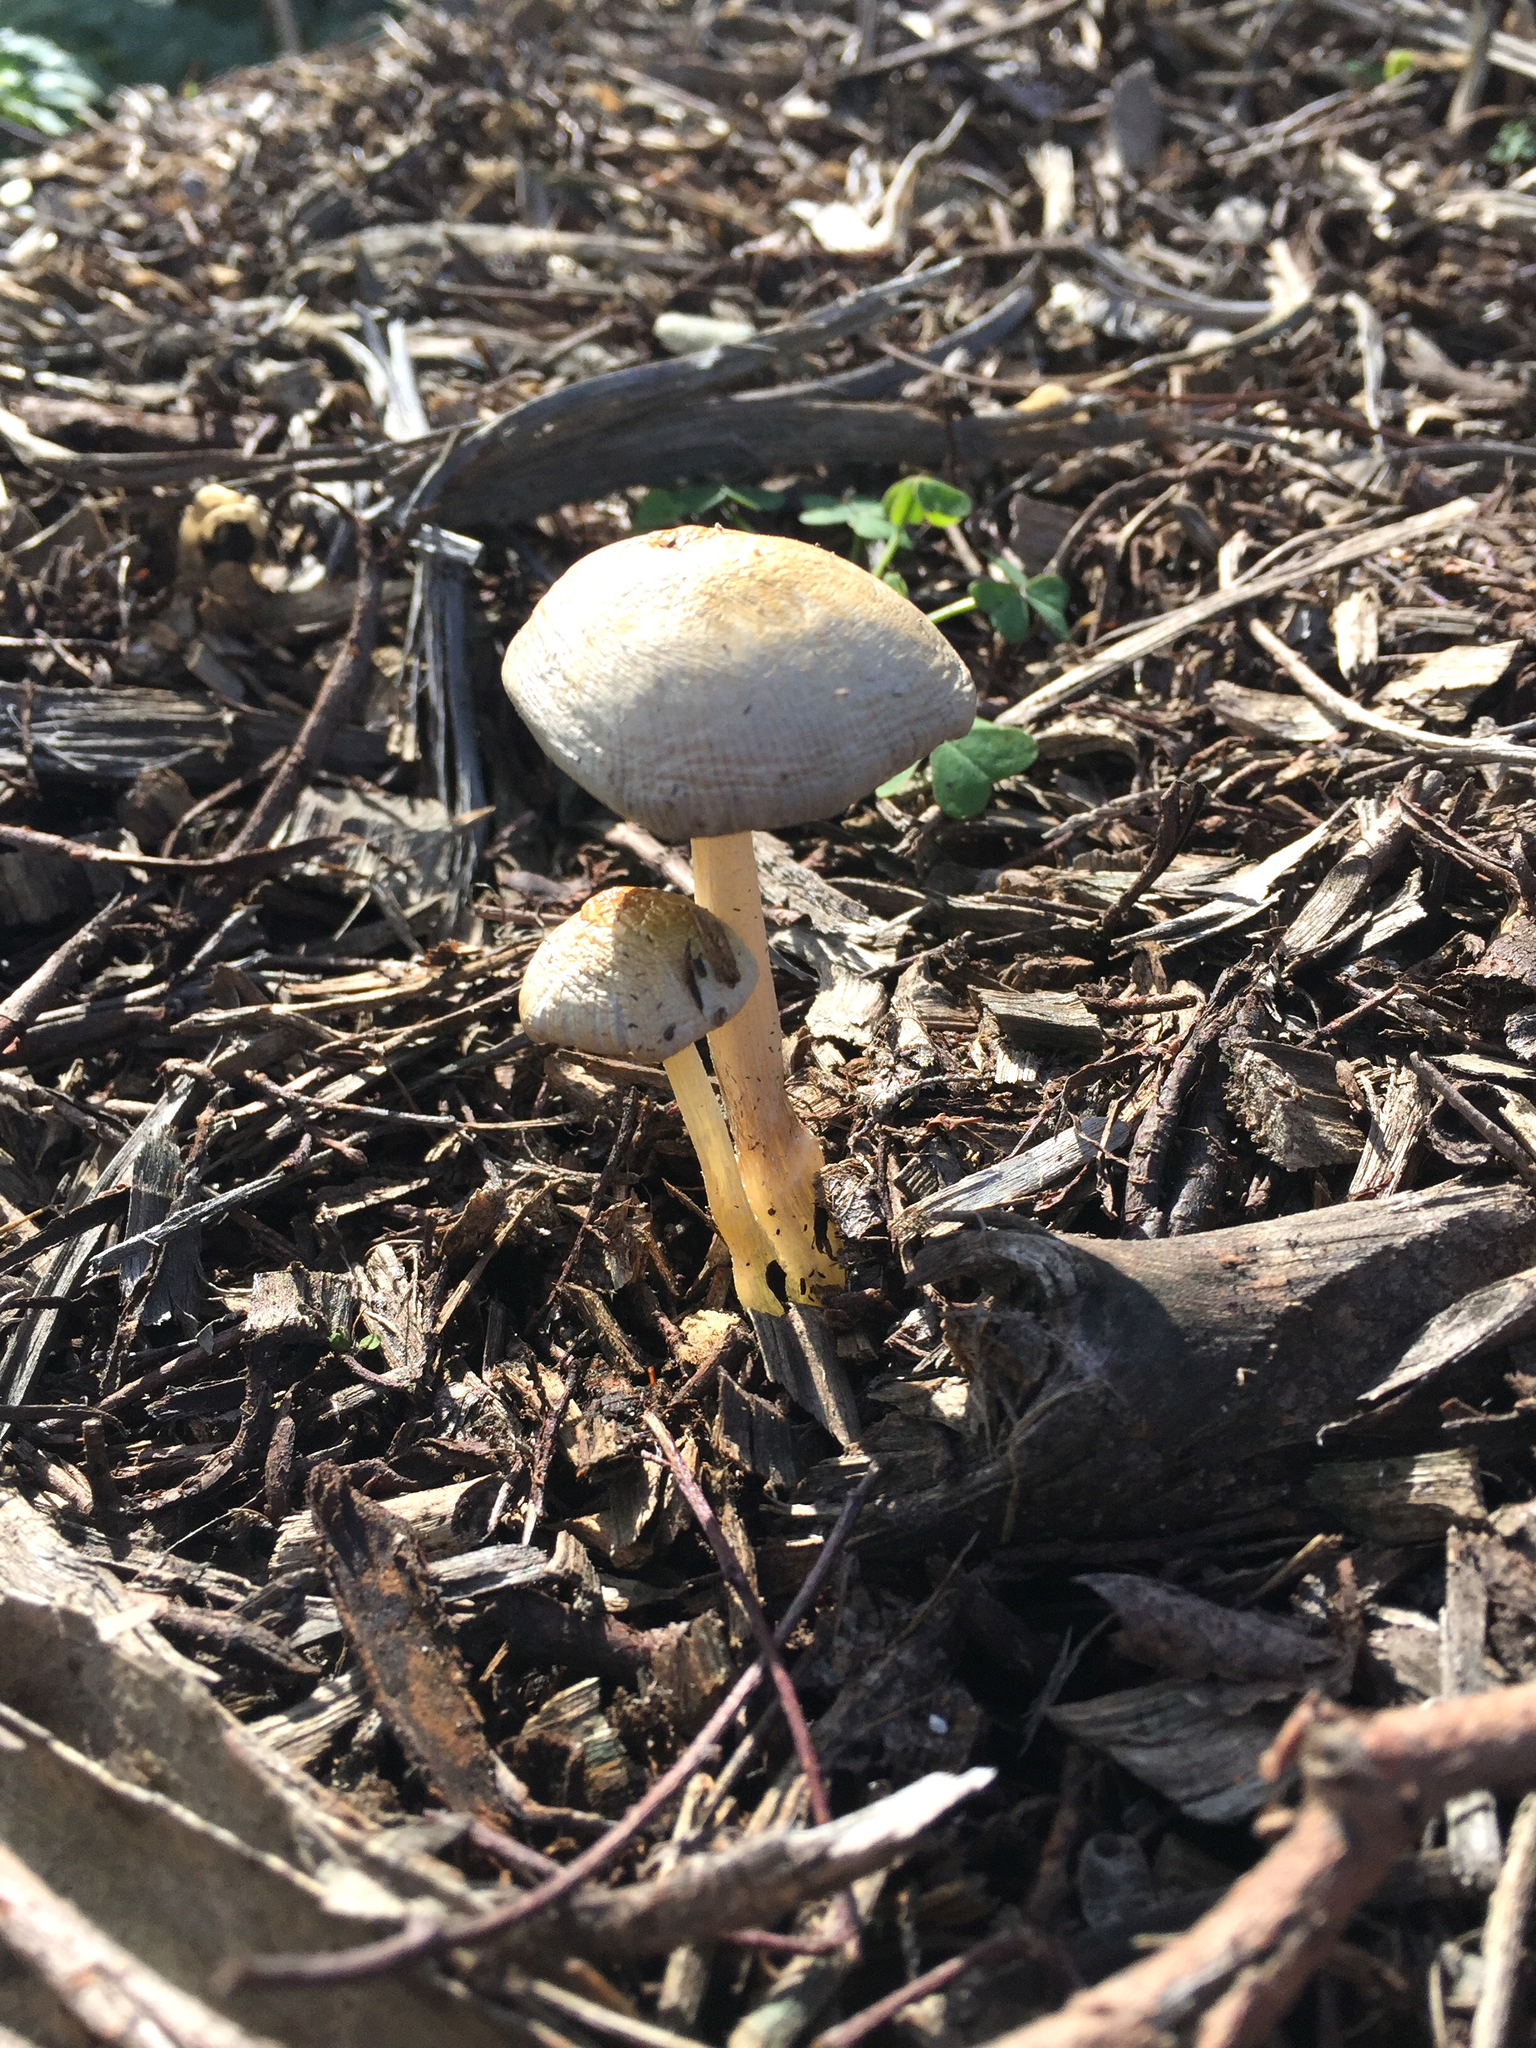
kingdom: Fungi
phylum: Basidiomycota
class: Agaricomycetes
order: Agaricales
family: Bolbitiaceae
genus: Bolbitius
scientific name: Bolbitius titubans
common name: Yellow fieldcap
